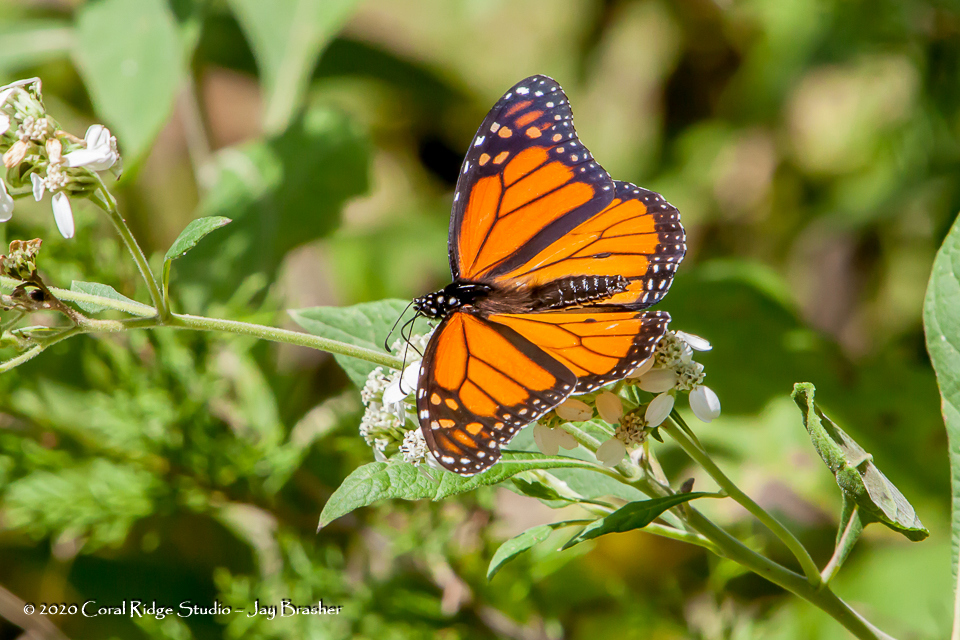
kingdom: Animalia
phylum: Arthropoda
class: Insecta
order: Lepidoptera
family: Nymphalidae
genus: Danaus
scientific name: Danaus plexippus
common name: Monarch
